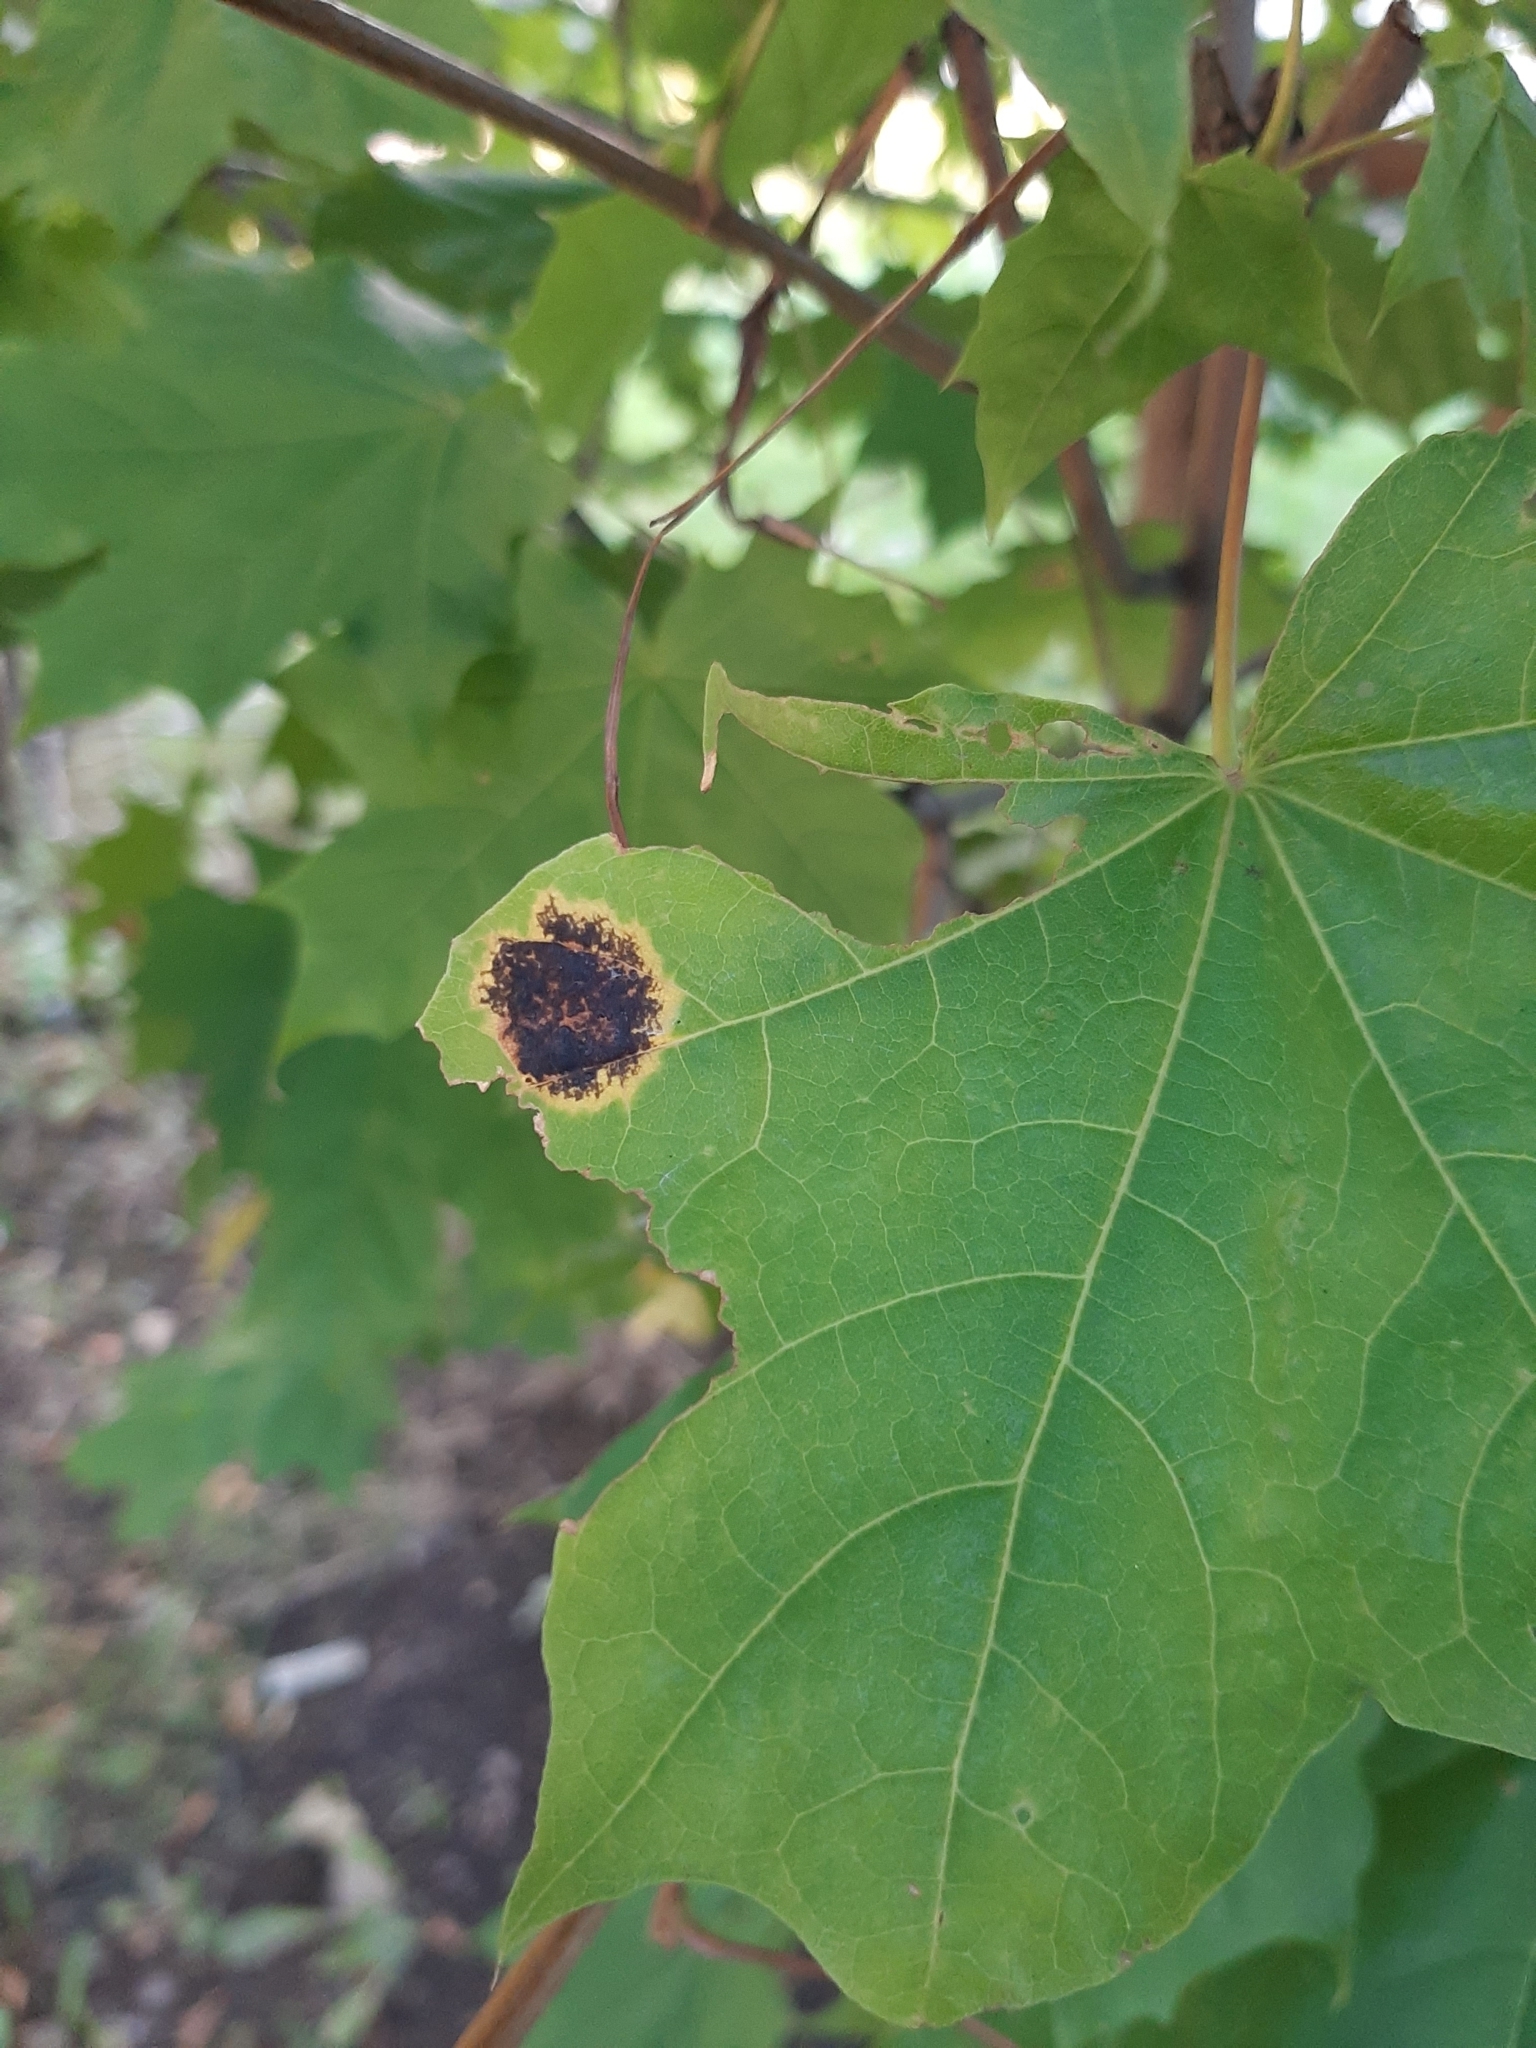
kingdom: Fungi
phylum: Ascomycota
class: Leotiomycetes
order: Rhytismatales
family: Rhytismataceae
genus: Rhytisma
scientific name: Rhytisma acerinum
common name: European tar spot
